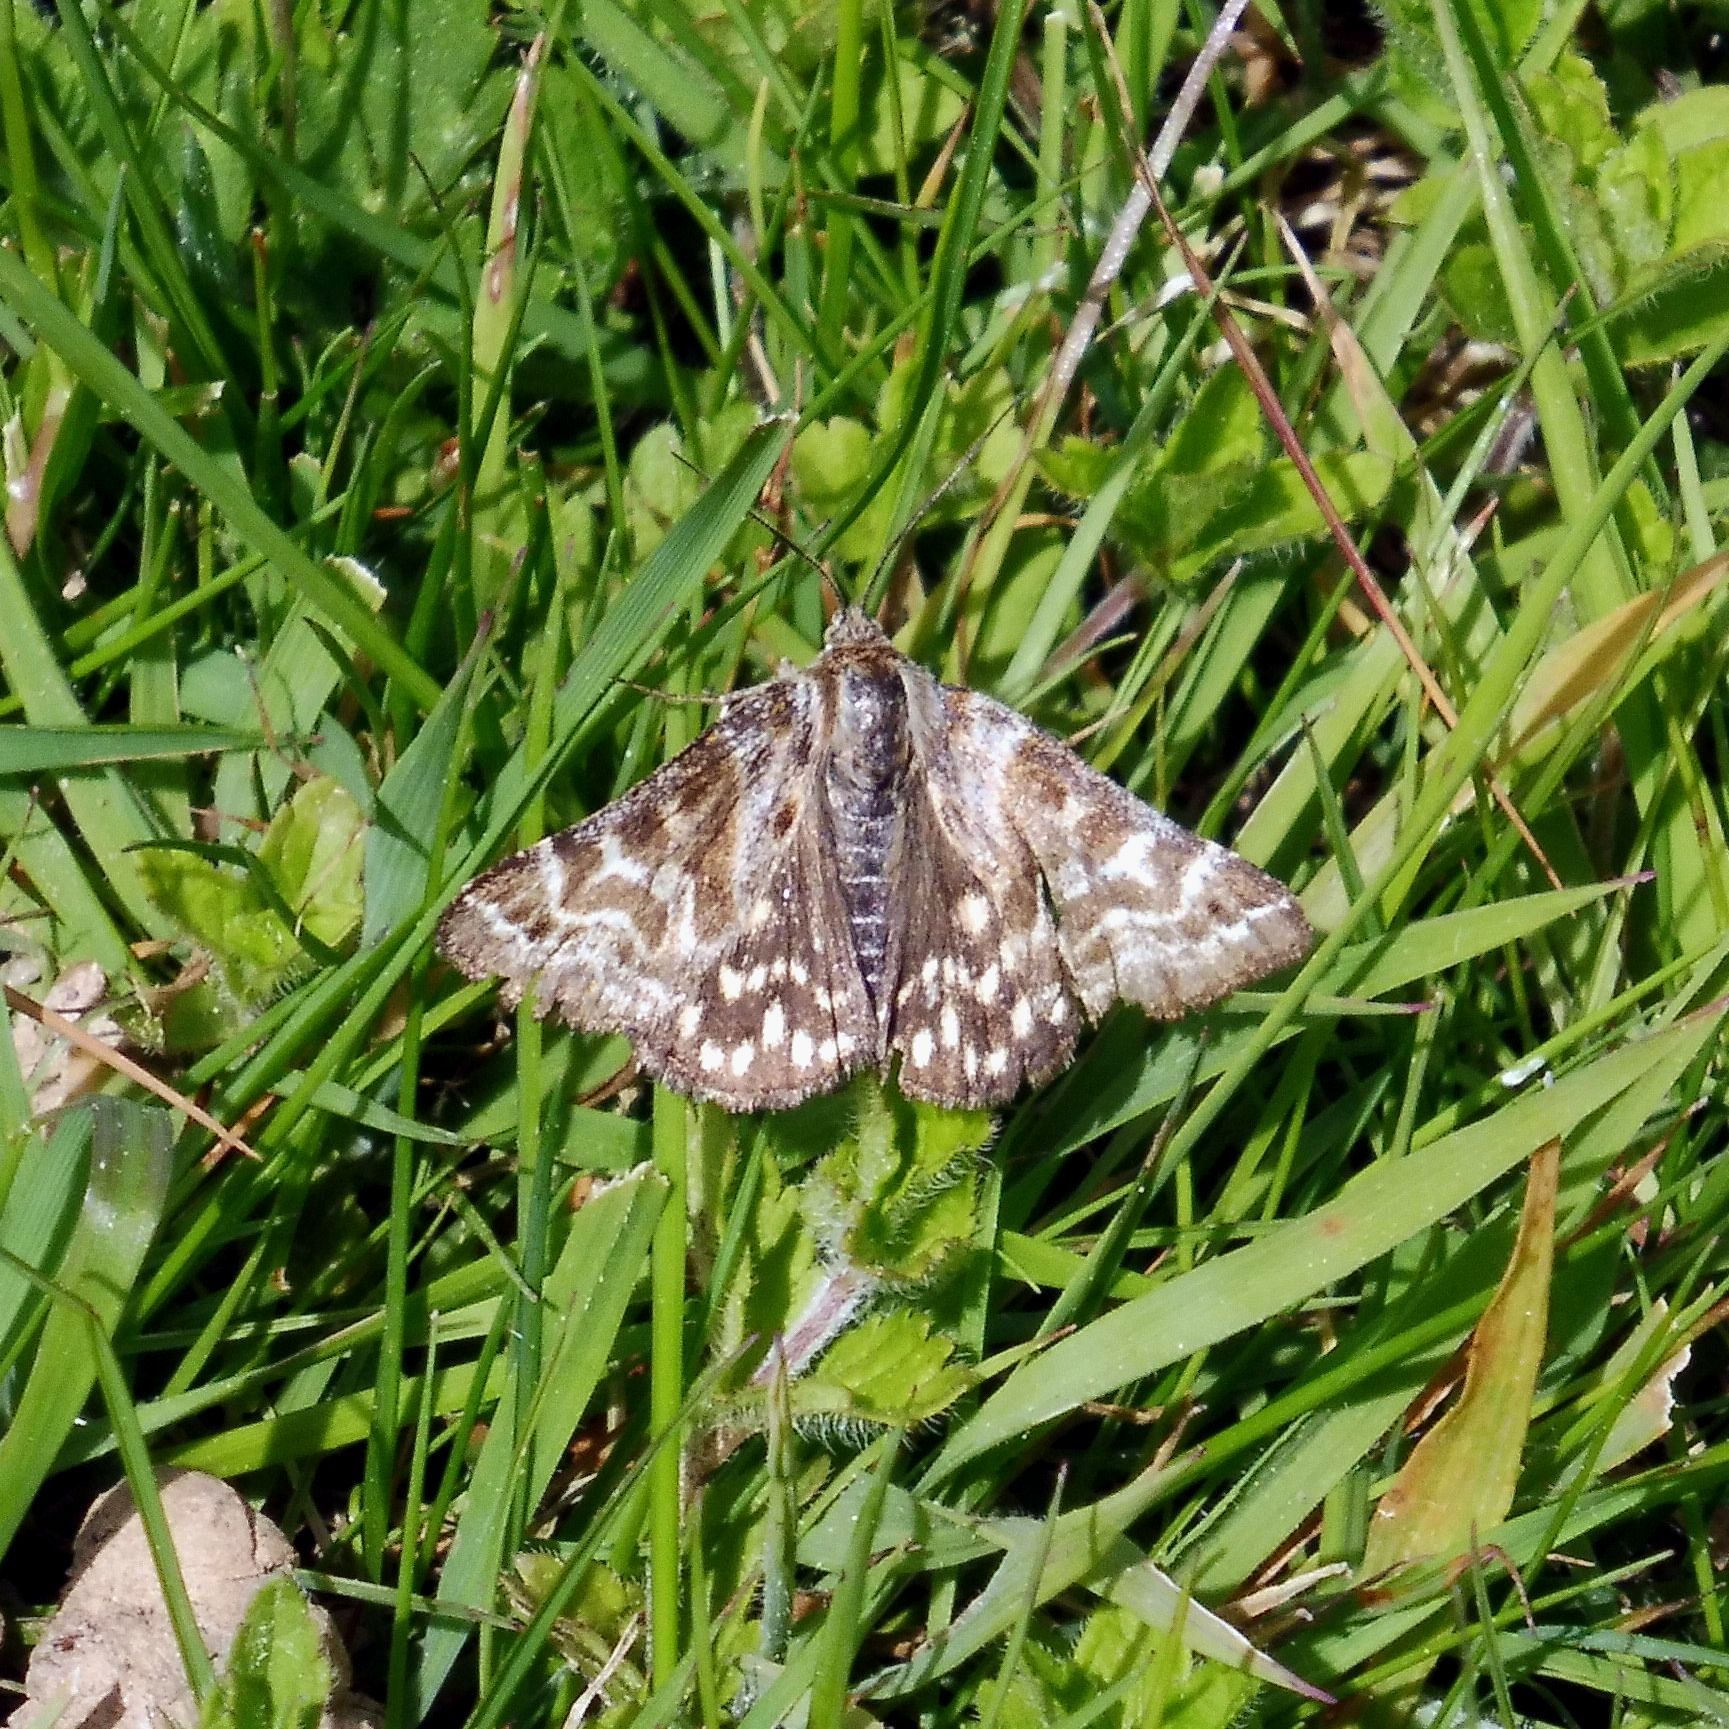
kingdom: Animalia
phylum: Arthropoda
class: Insecta
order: Lepidoptera
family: Erebidae
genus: Callistege
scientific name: Callistege mi
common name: Mother shipton
